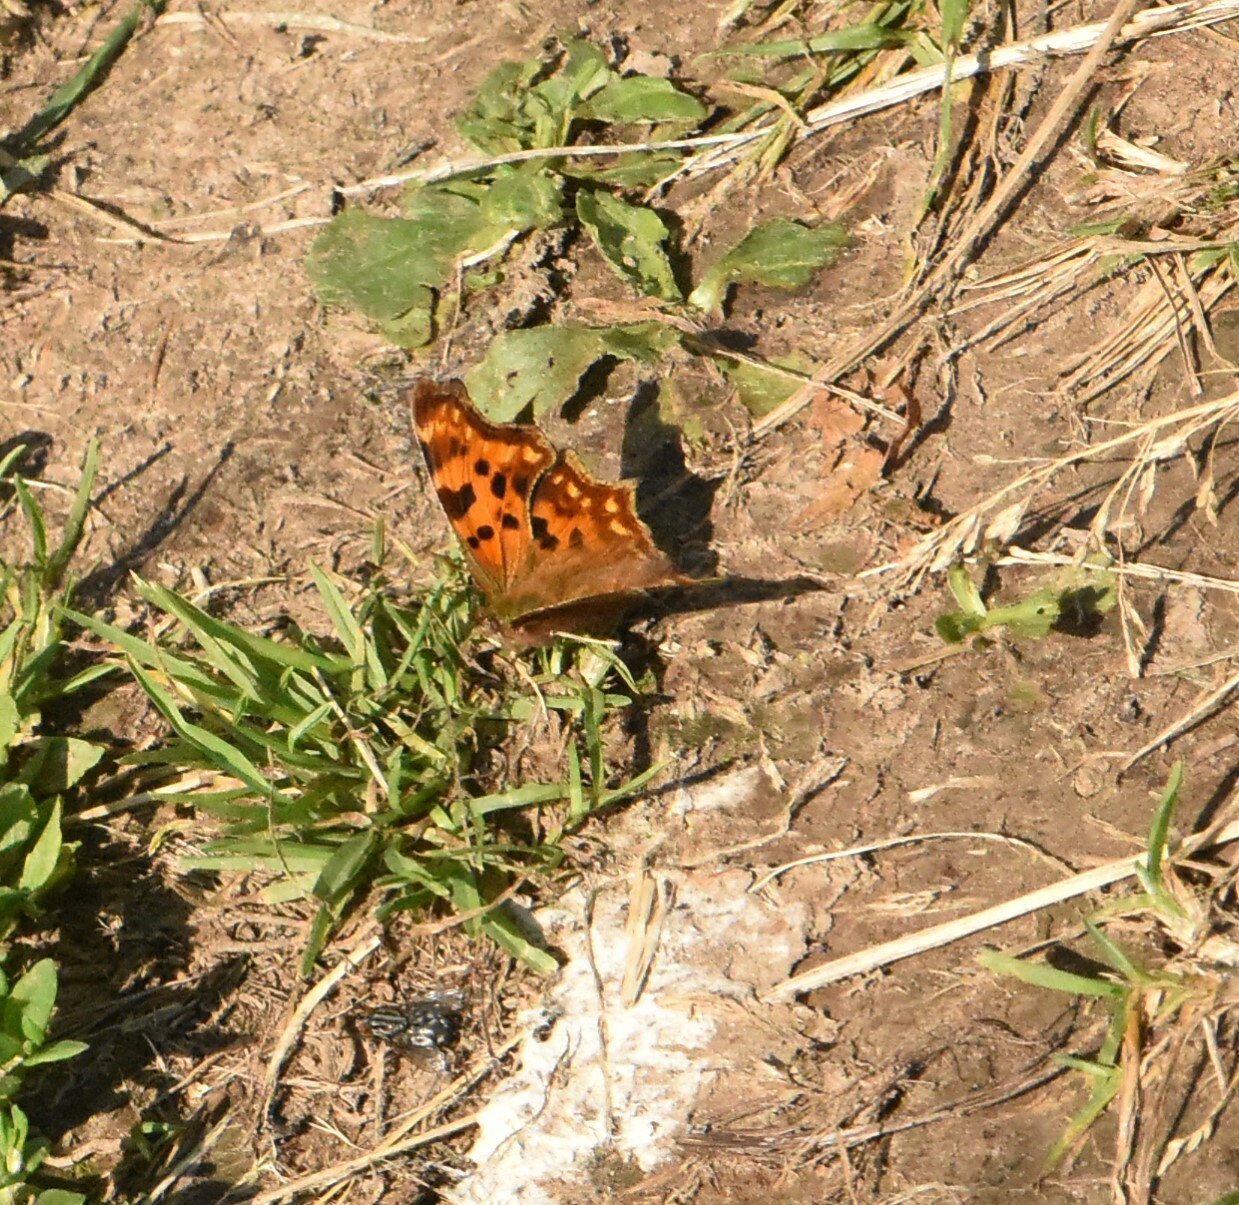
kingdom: Animalia
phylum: Arthropoda
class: Insecta
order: Lepidoptera
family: Nymphalidae
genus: Polygonia
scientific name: Polygonia c-album
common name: Comma
